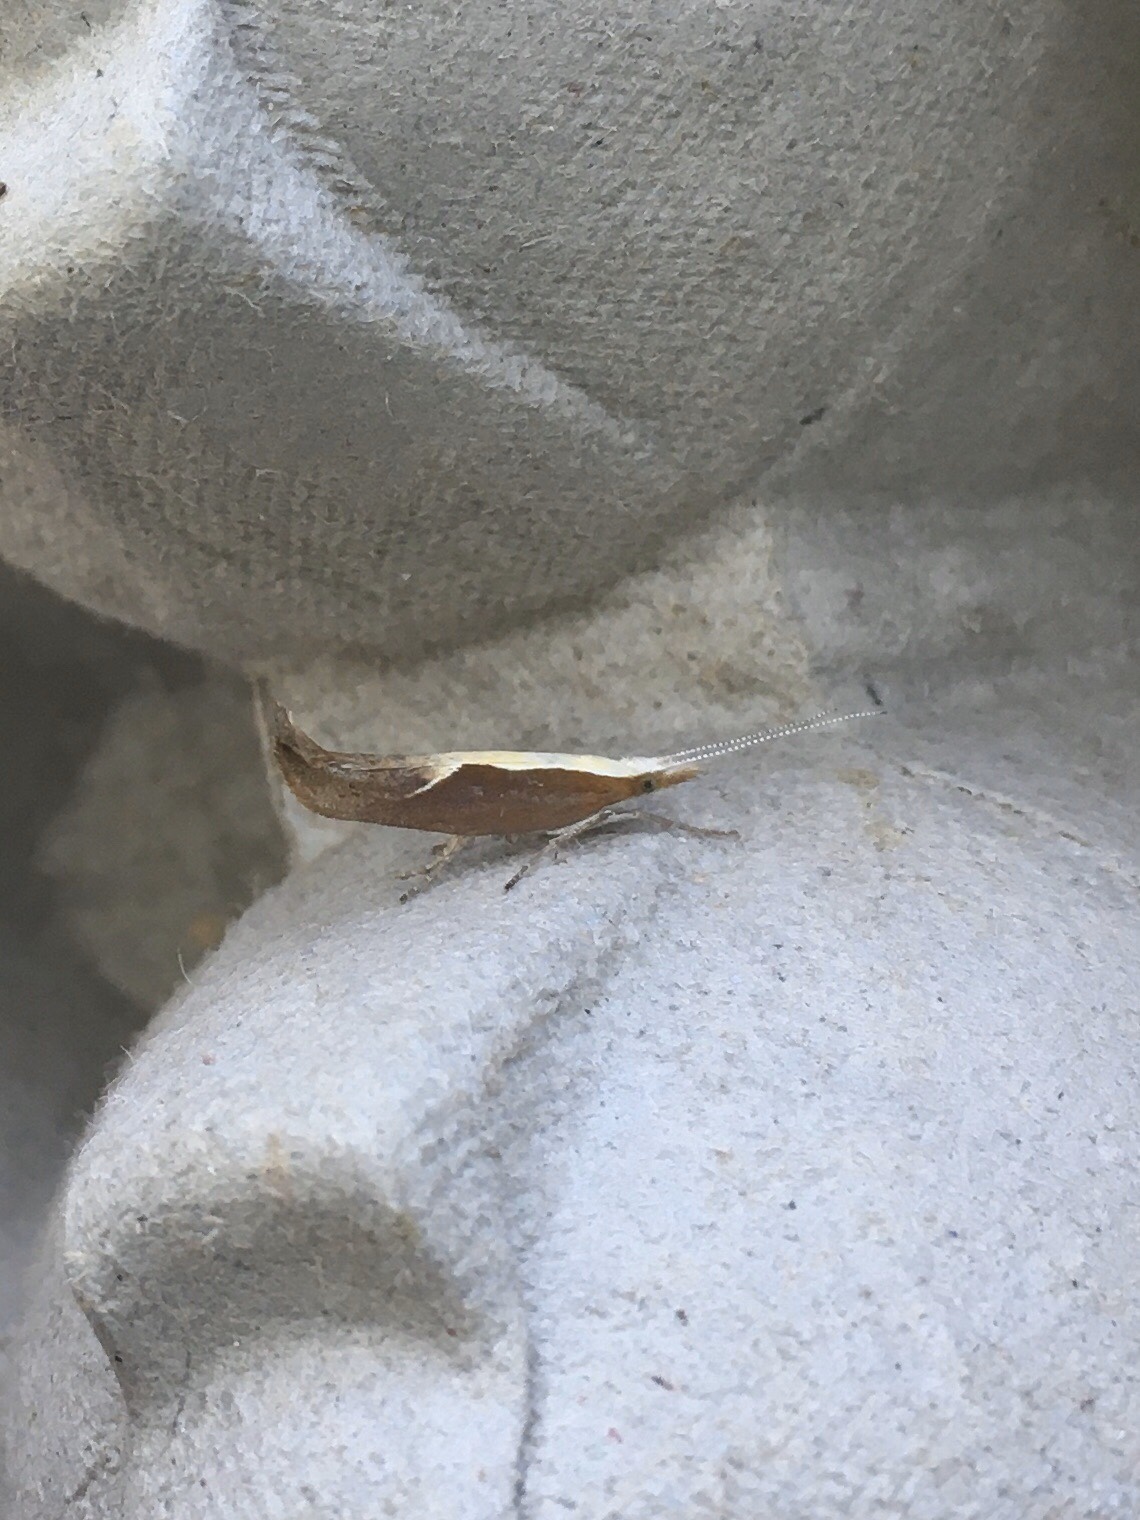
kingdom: Animalia
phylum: Arthropoda
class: Insecta
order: Lepidoptera
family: Ypsolophidae
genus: Ypsolopha
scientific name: Ypsolopha dentella
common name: Honeysuckle moth
